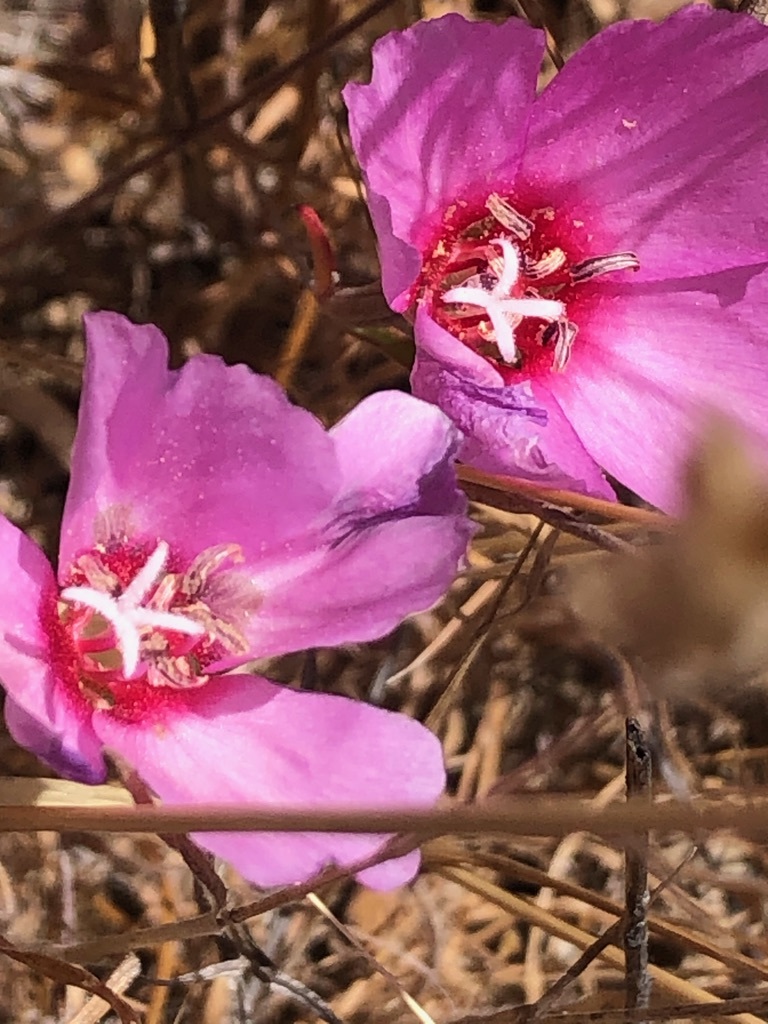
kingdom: Plantae
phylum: Tracheophyta
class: Magnoliopsida
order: Myrtales
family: Onagraceae
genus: Clarkia
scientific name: Clarkia rubicunda
